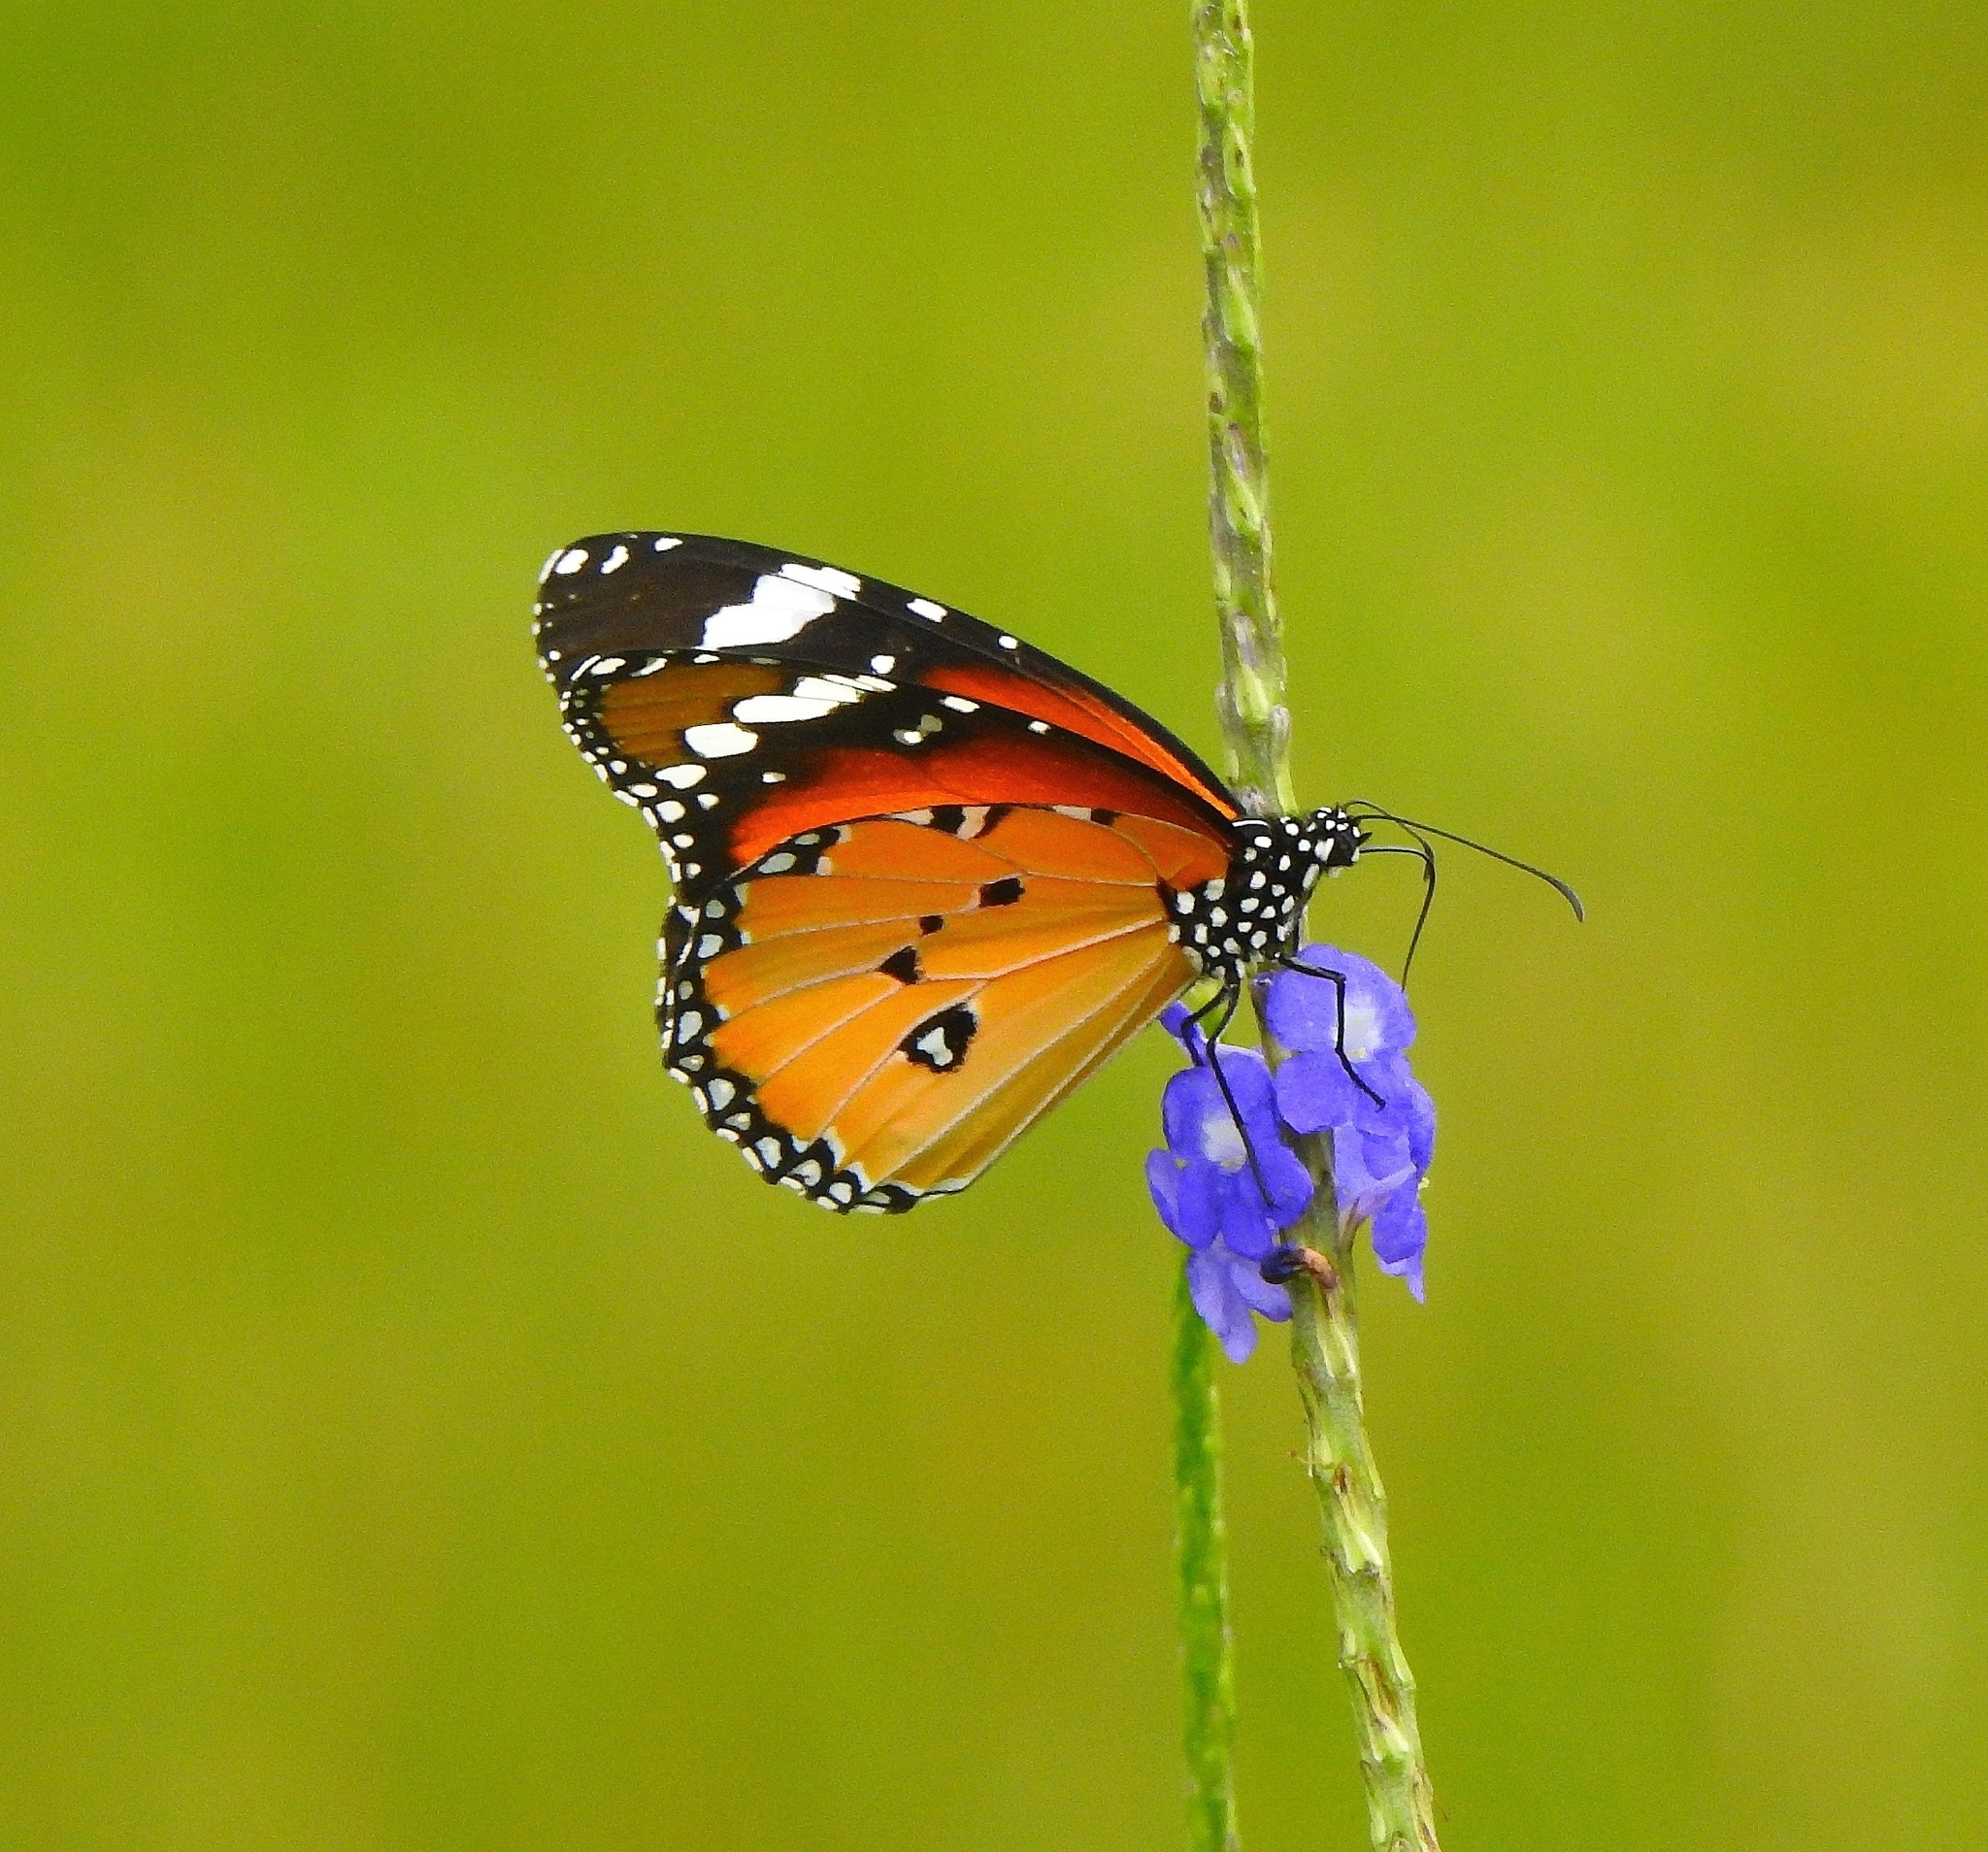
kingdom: Animalia
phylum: Arthropoda
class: Insecta
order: Lepidoptera
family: Nymphalidae
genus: Danaus
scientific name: Danaus chrysippus
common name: Plain tiger
